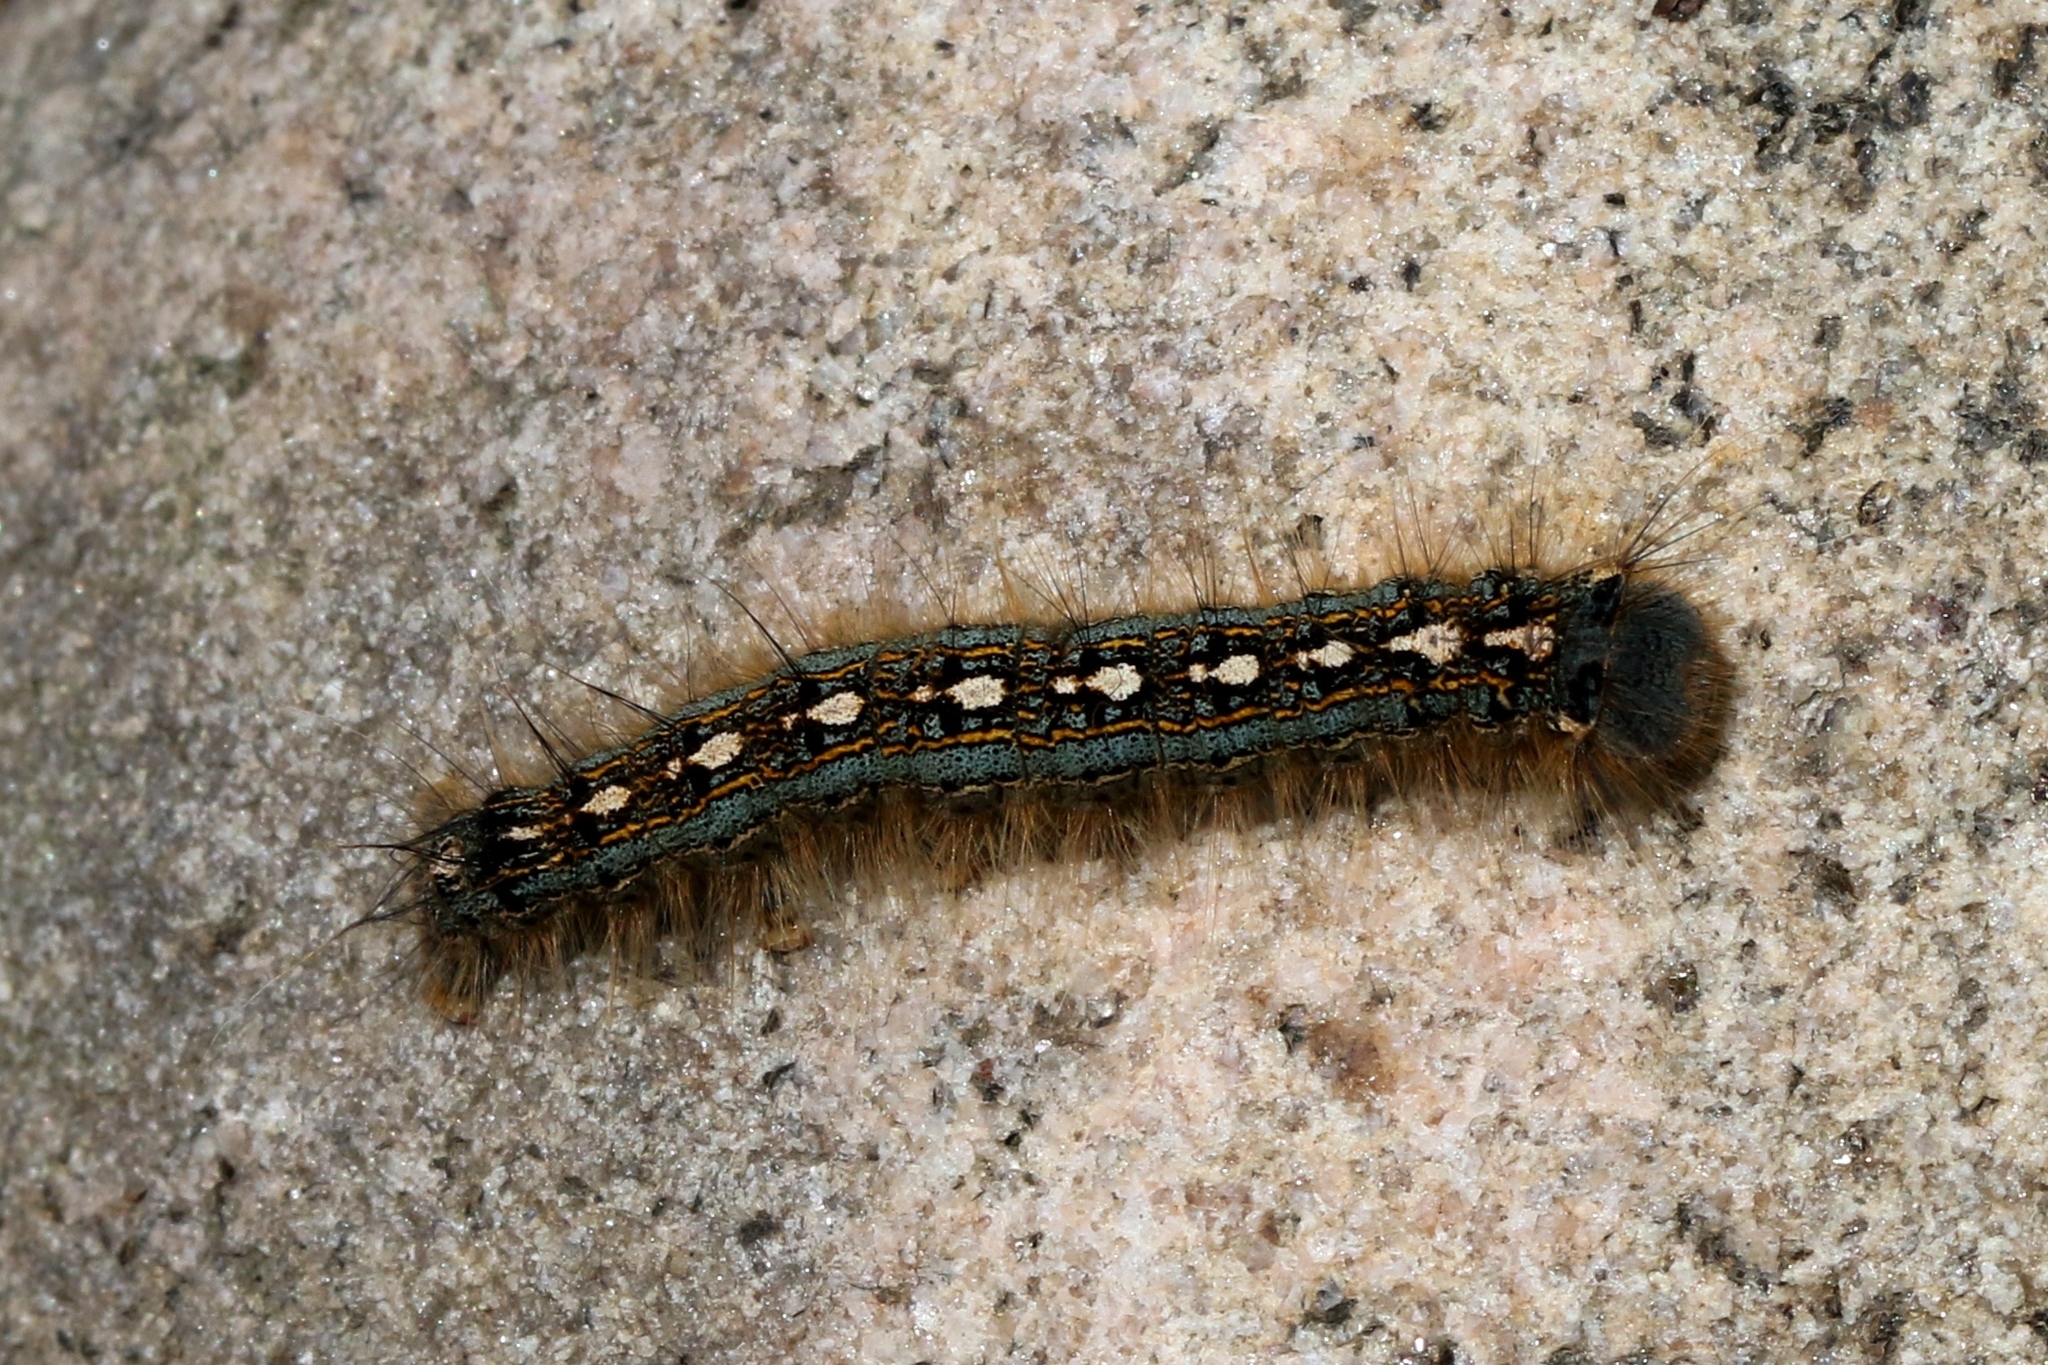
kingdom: Animalia
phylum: Arthropoda
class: Insecta
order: Lepidoptera
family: Lasiocampidae
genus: Malacosoma
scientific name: Malacosoma disstria
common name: Forest tent caterpillar
